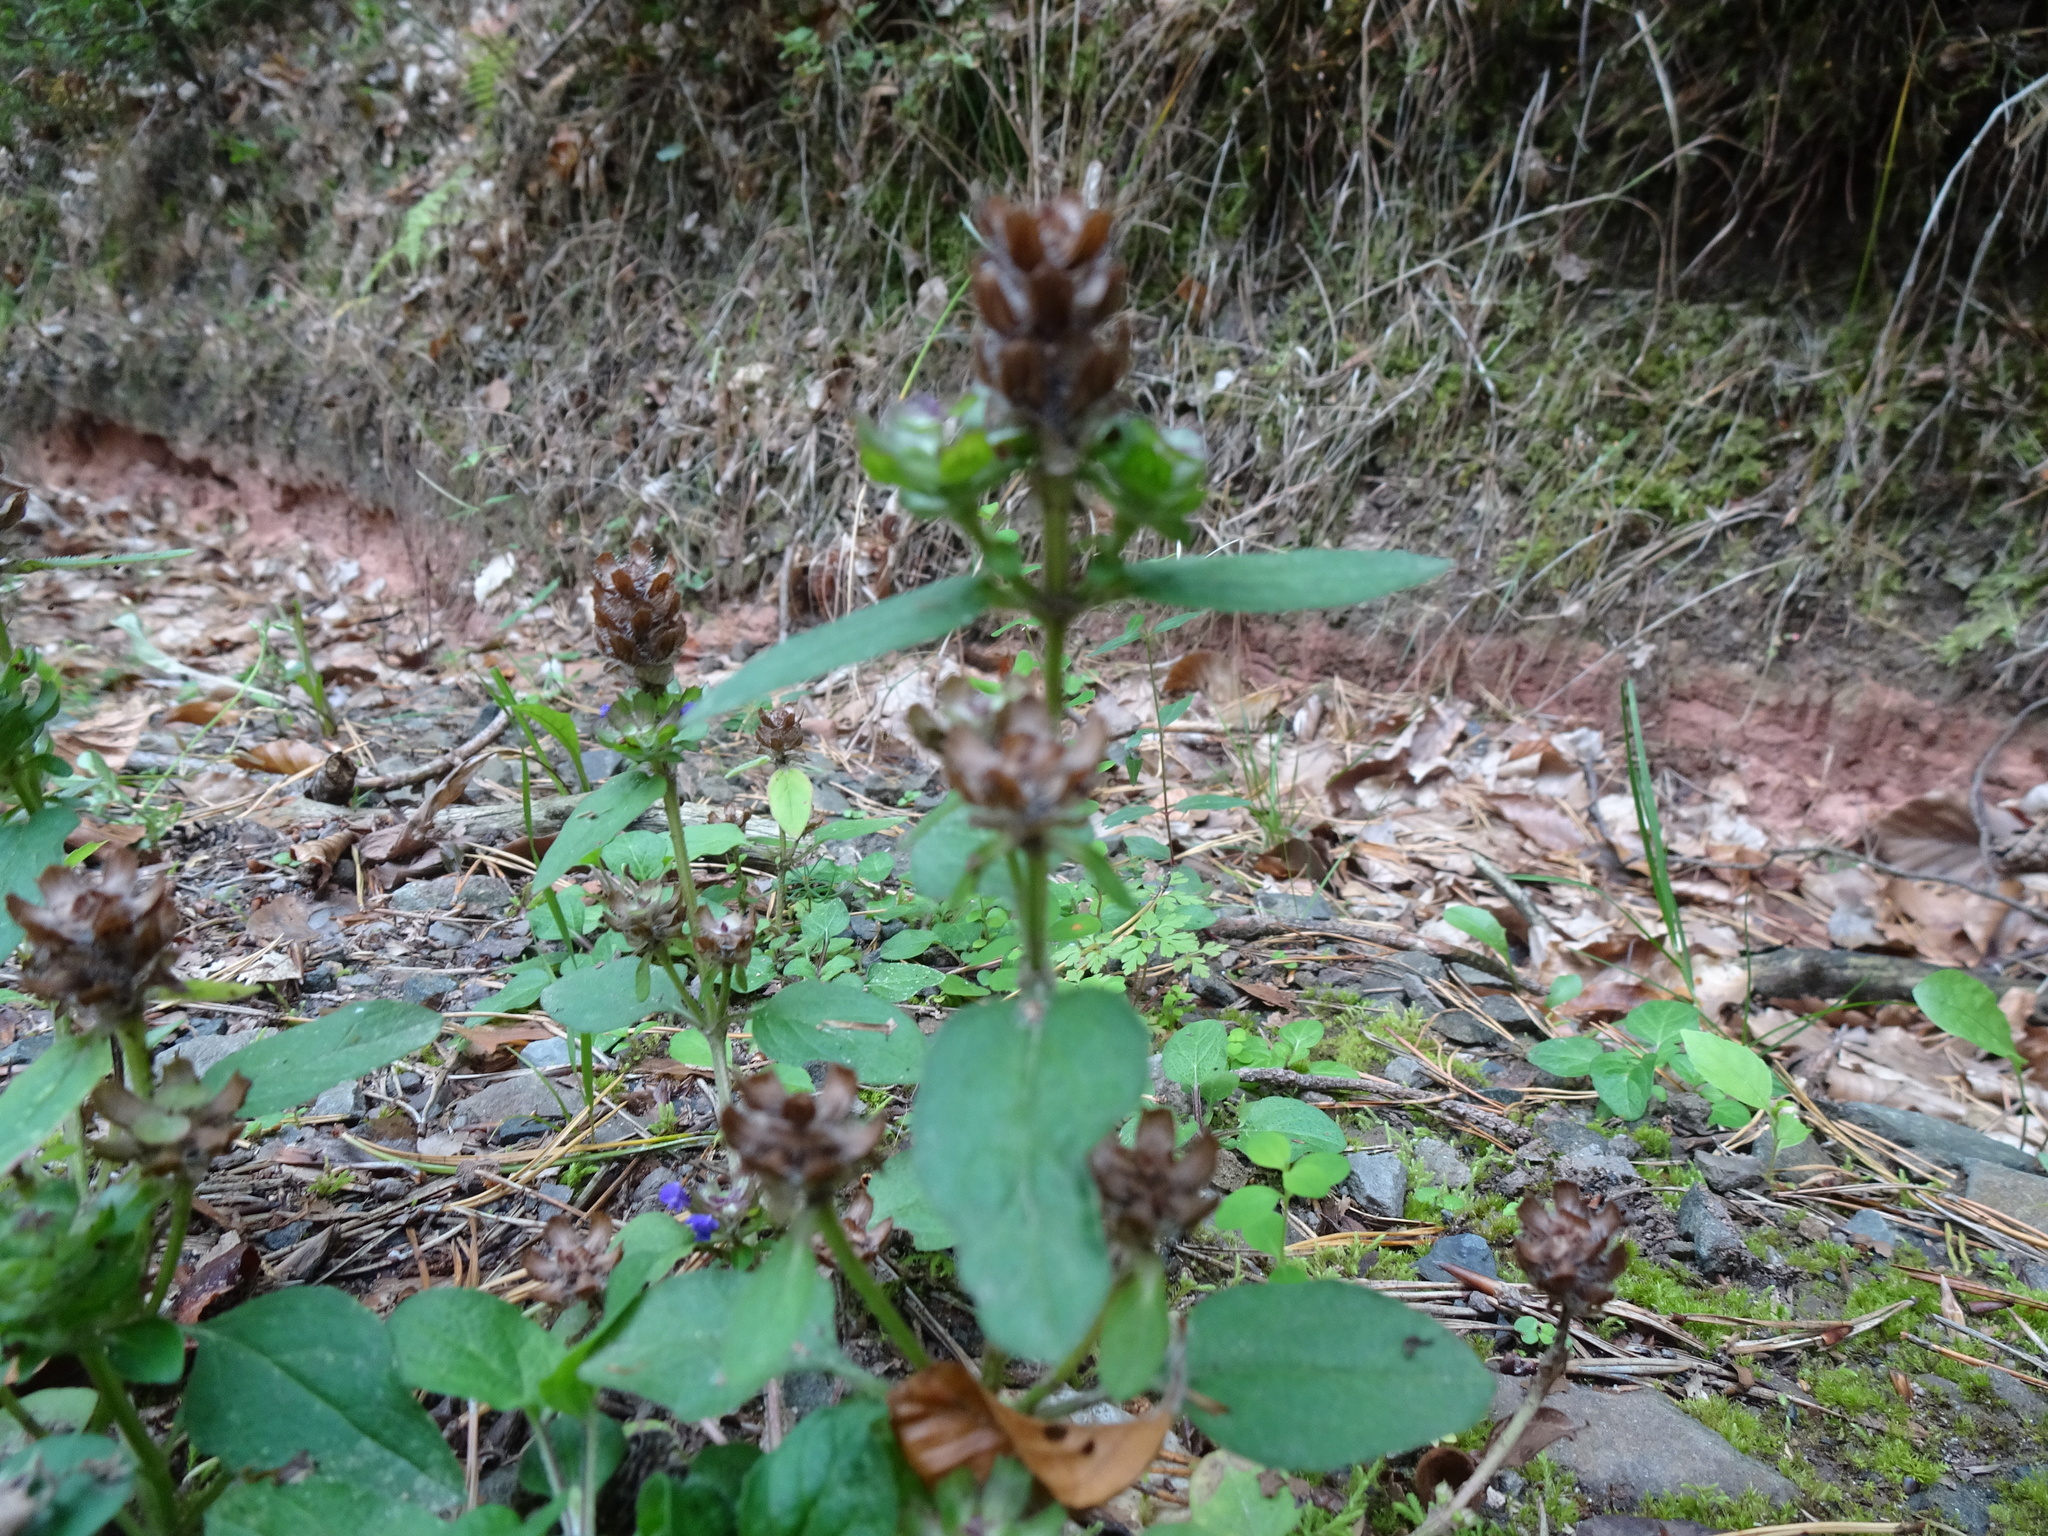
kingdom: Plantae
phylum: Tracheophyta
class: Magnoliopsida
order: Lamiales
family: Lamiaceae
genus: Prunella
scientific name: Prunella vulgaris
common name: Heal-all
